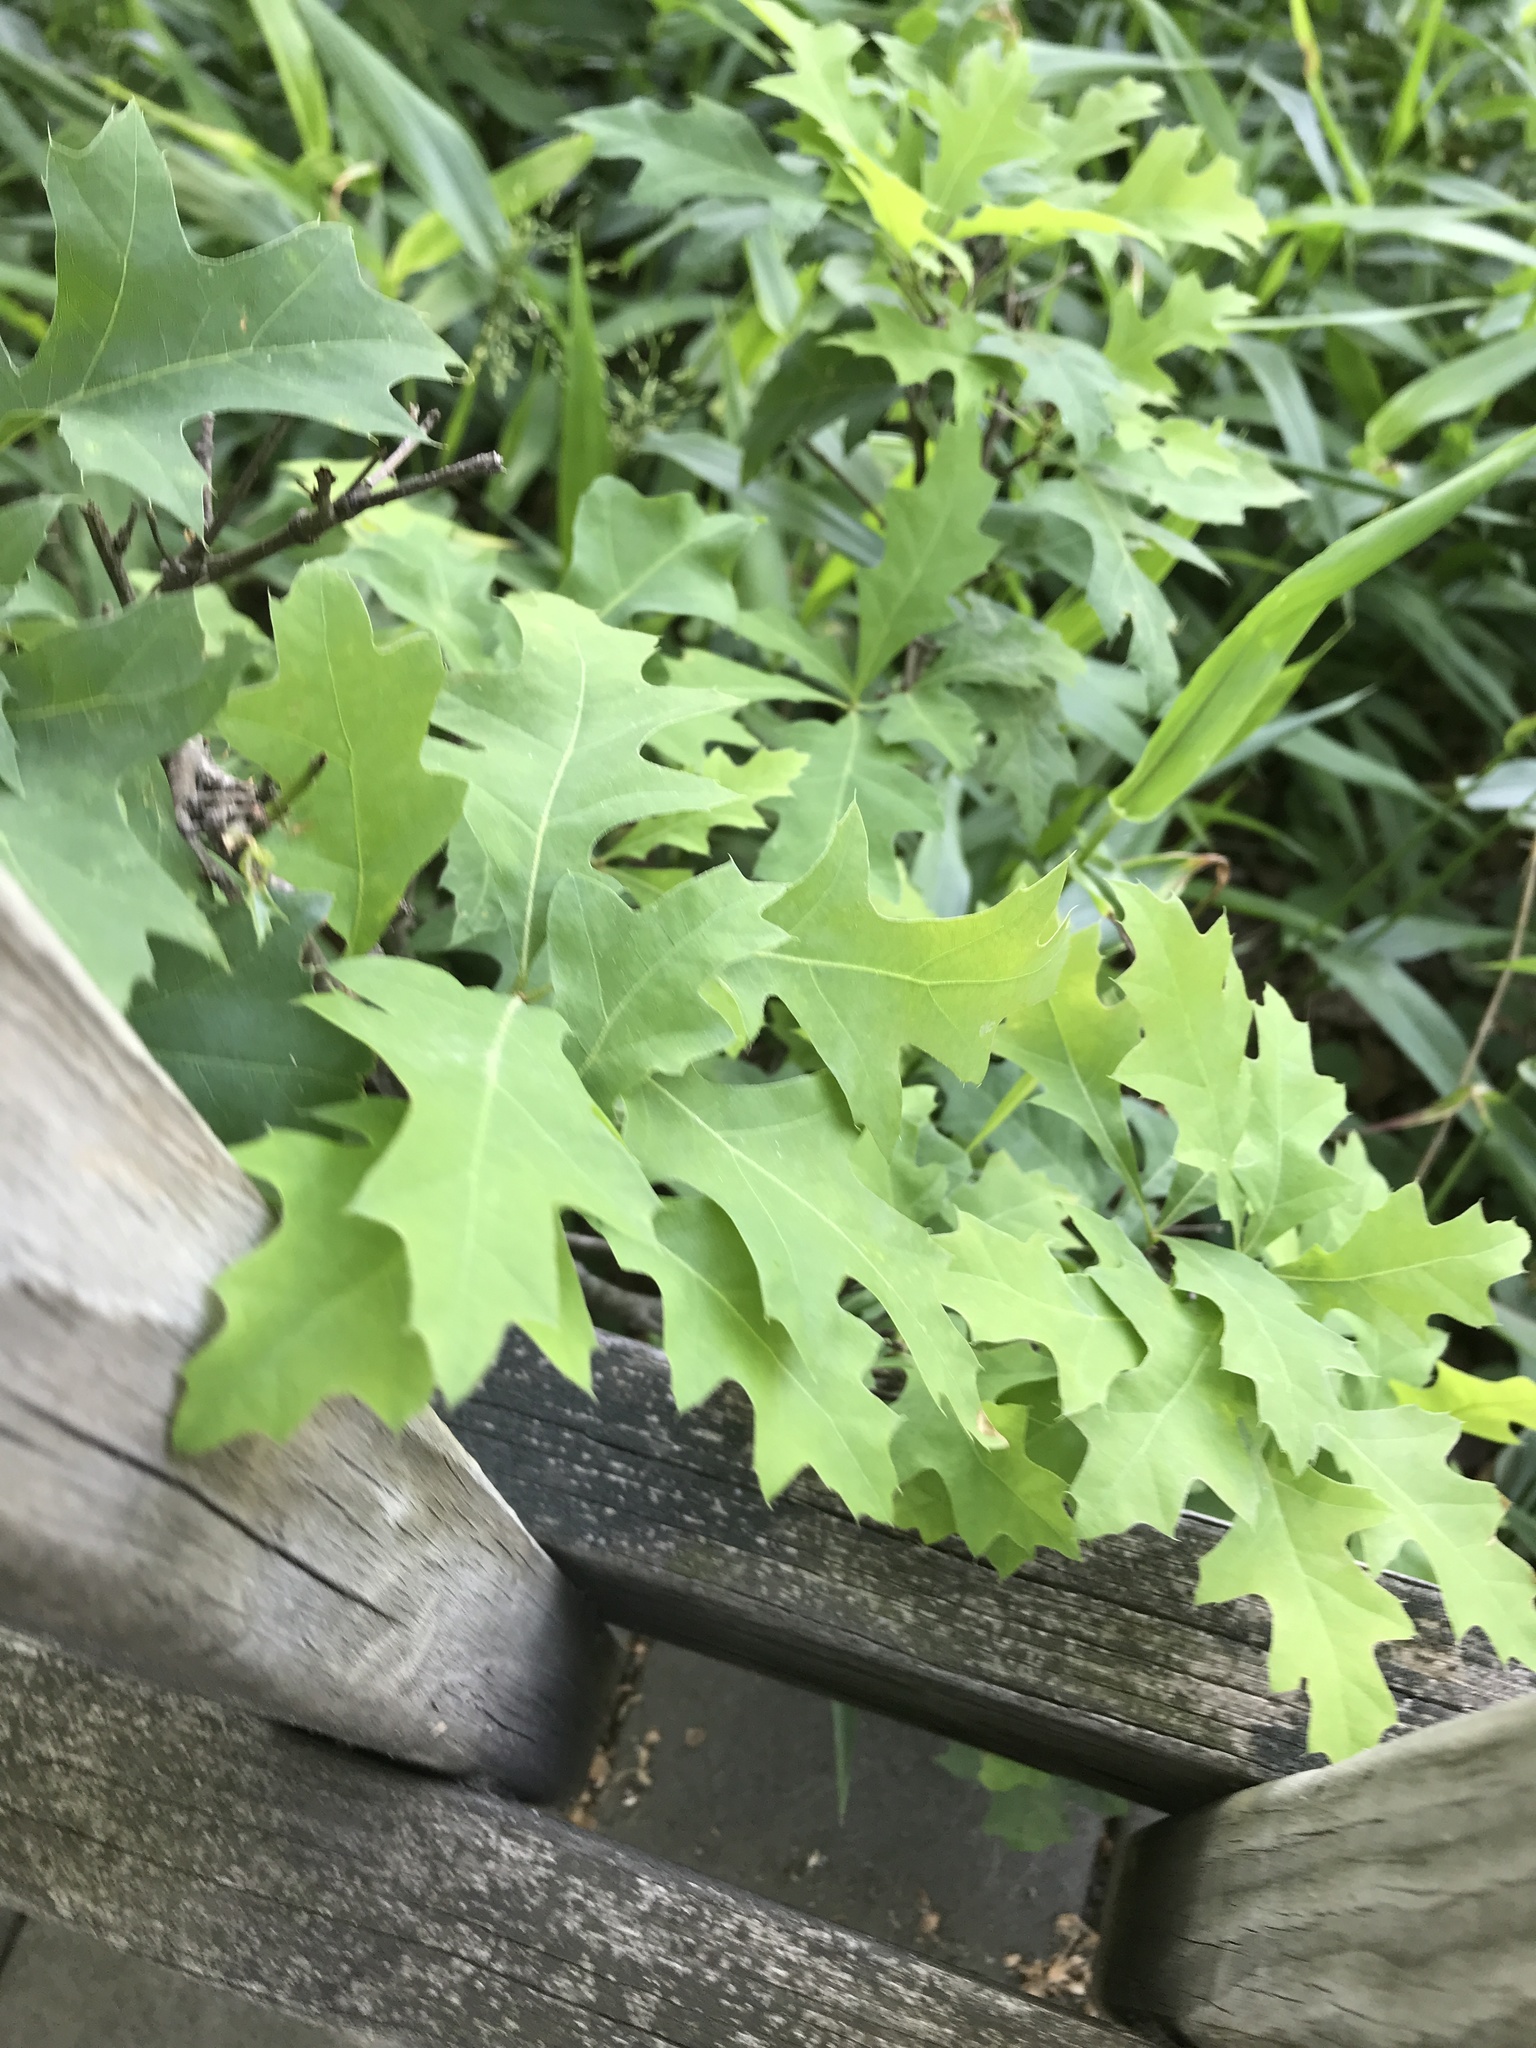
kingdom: Plantae
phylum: Tracheophyta
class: Magnoliopsida
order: Fagales
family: Fagaceae
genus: Quercus
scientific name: Quercus
